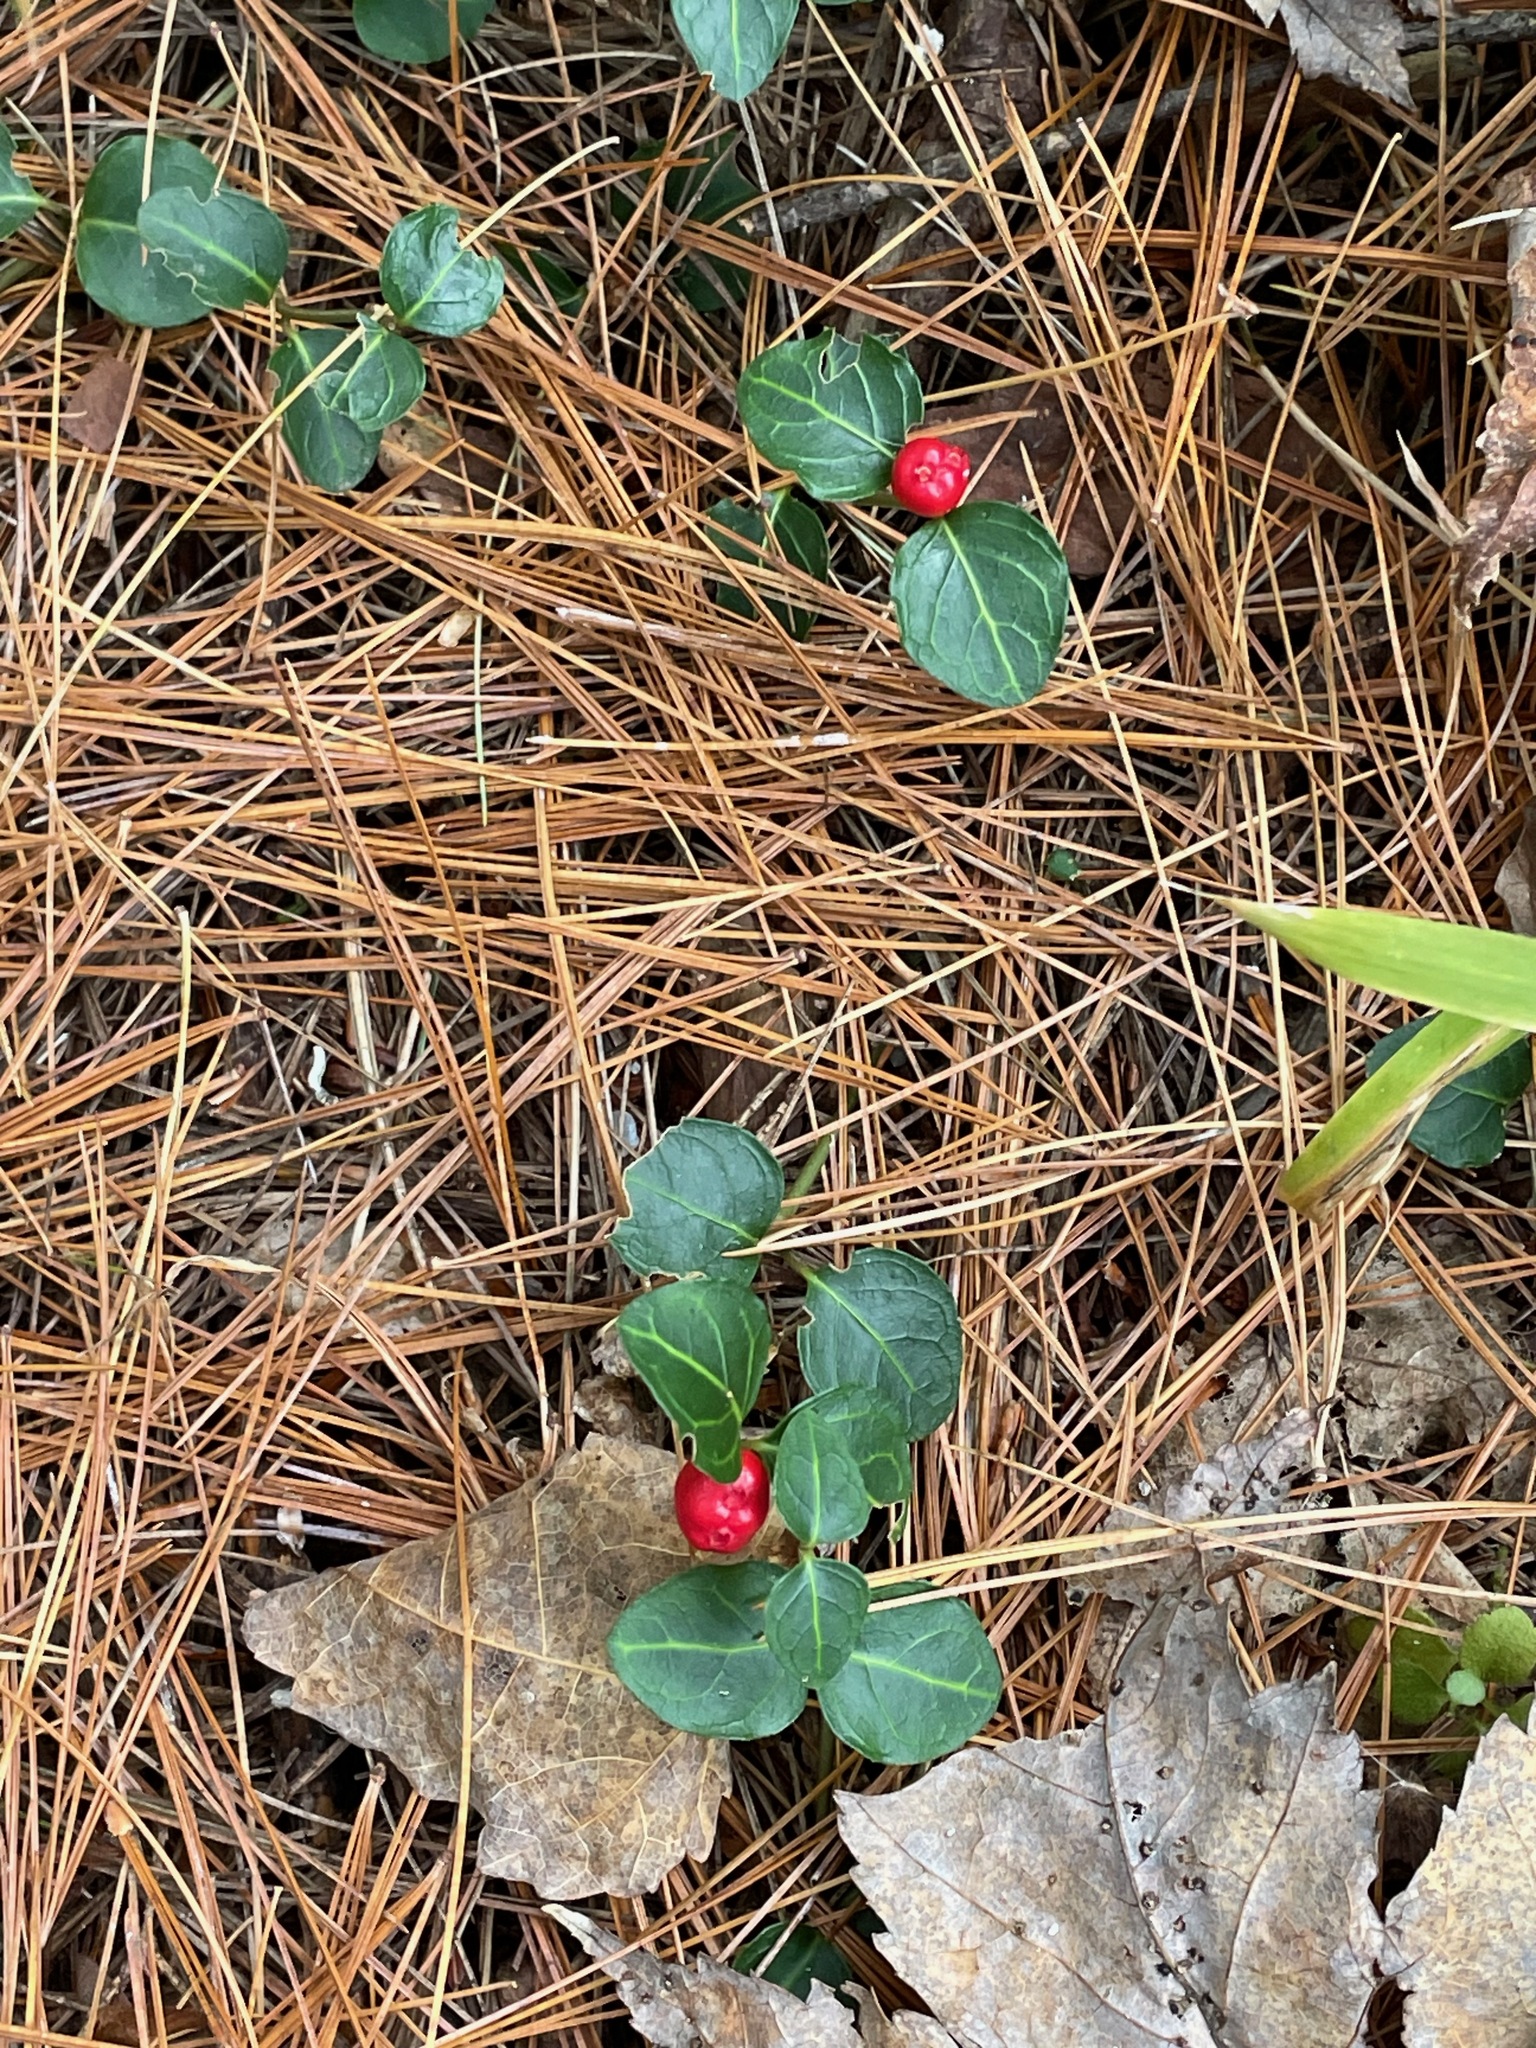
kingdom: Plantae
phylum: Tracheophyta
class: Magnoliopsida
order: Gentianales
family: Rubiaceae
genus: Mitchella
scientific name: Mitchella repens
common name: Partridge-berry
